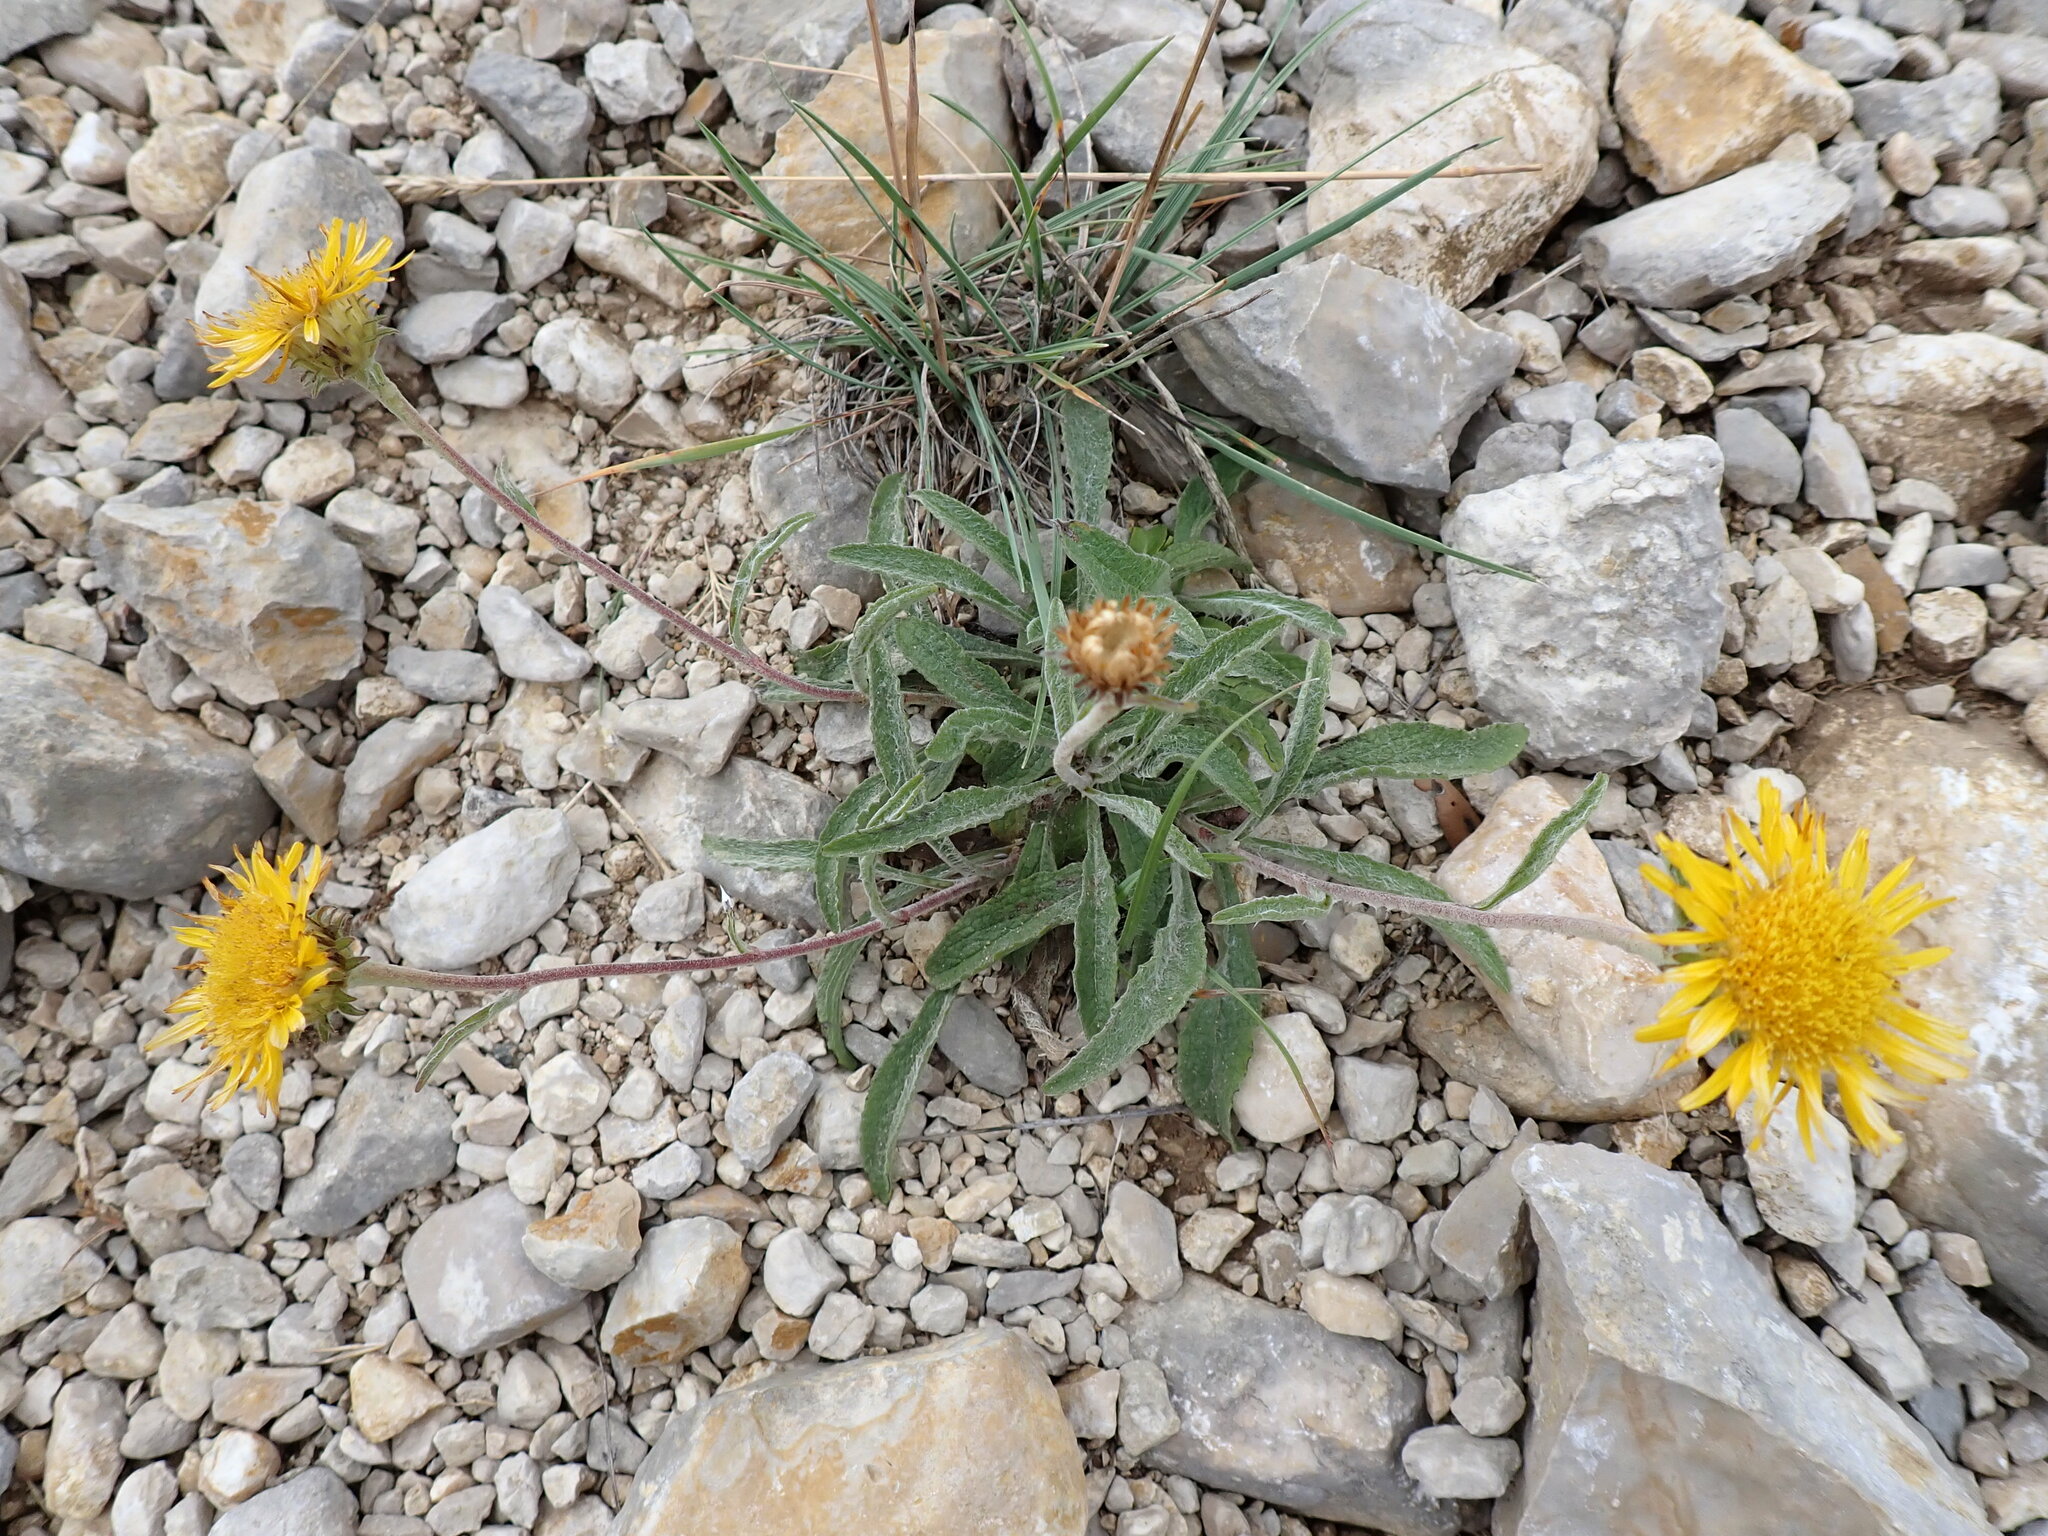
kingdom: Plantae
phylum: Tracheophyta
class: Magnoliopsida
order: Asterales
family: Asteraceae
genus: Pentanema
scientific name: Pentanema montanum
